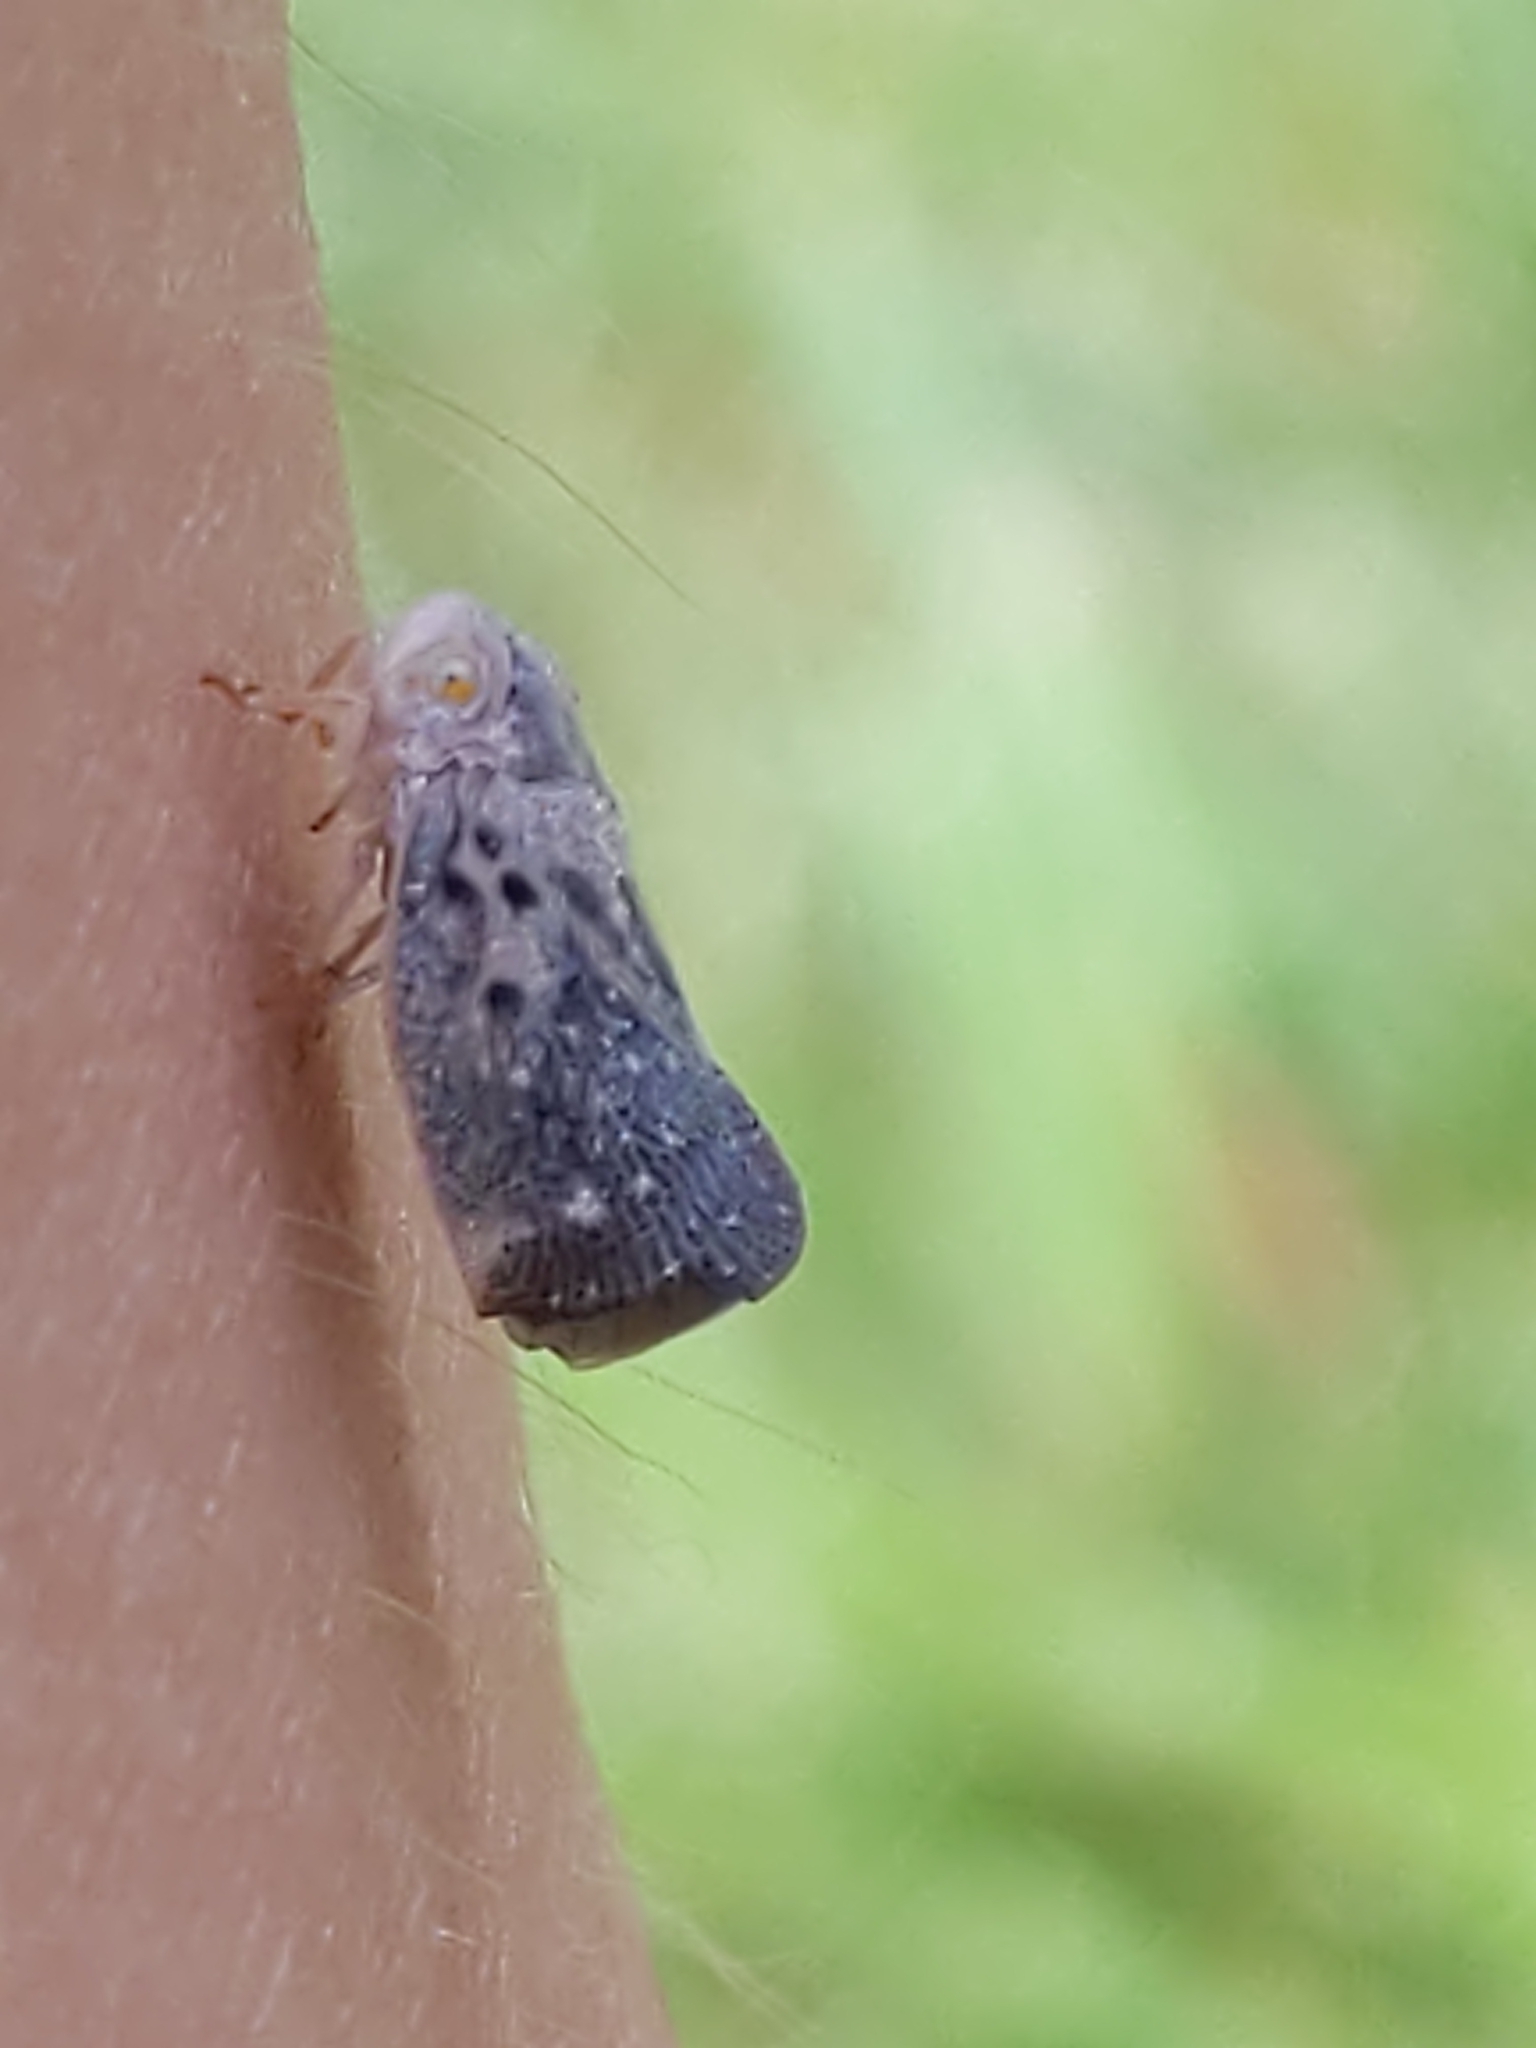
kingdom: Animalia
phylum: Arthropoda
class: Insecta
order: Hemiptera
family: Flatidae
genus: Metcalfa
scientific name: Metcalfa pruinosa
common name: Citrus flatid planthopper
